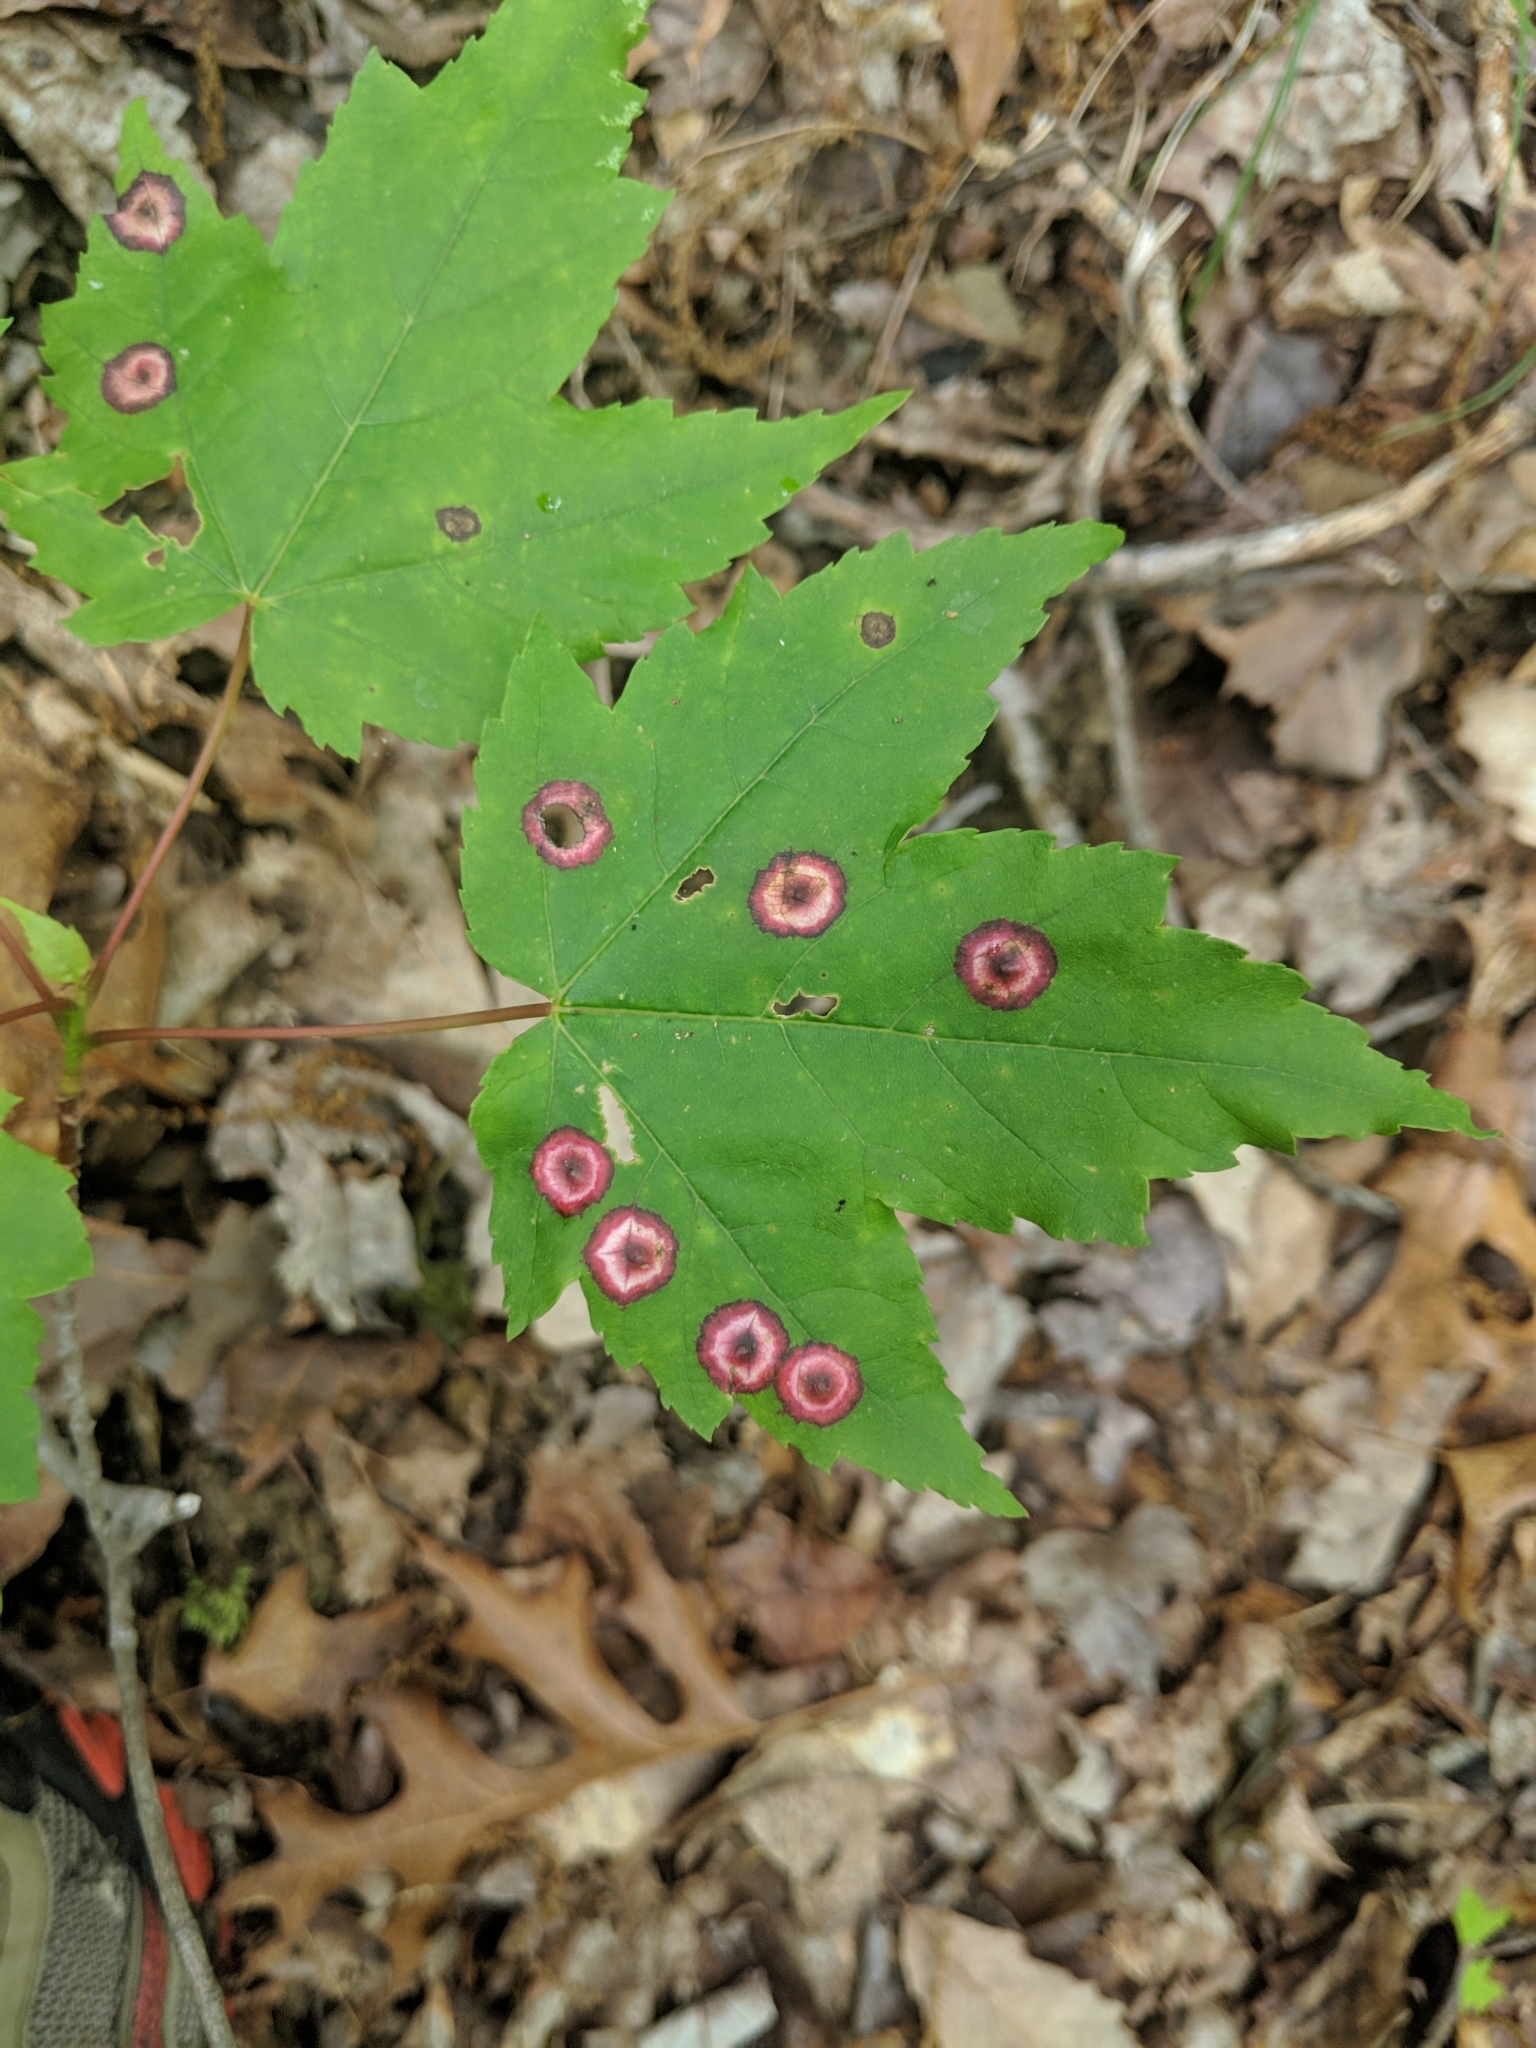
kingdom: Animalia
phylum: Arthropoda
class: Insecta
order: Diptera
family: Cecidomyiidae
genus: Acericecis
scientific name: Acericecis ocellaris
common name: Ocellate gall midge
